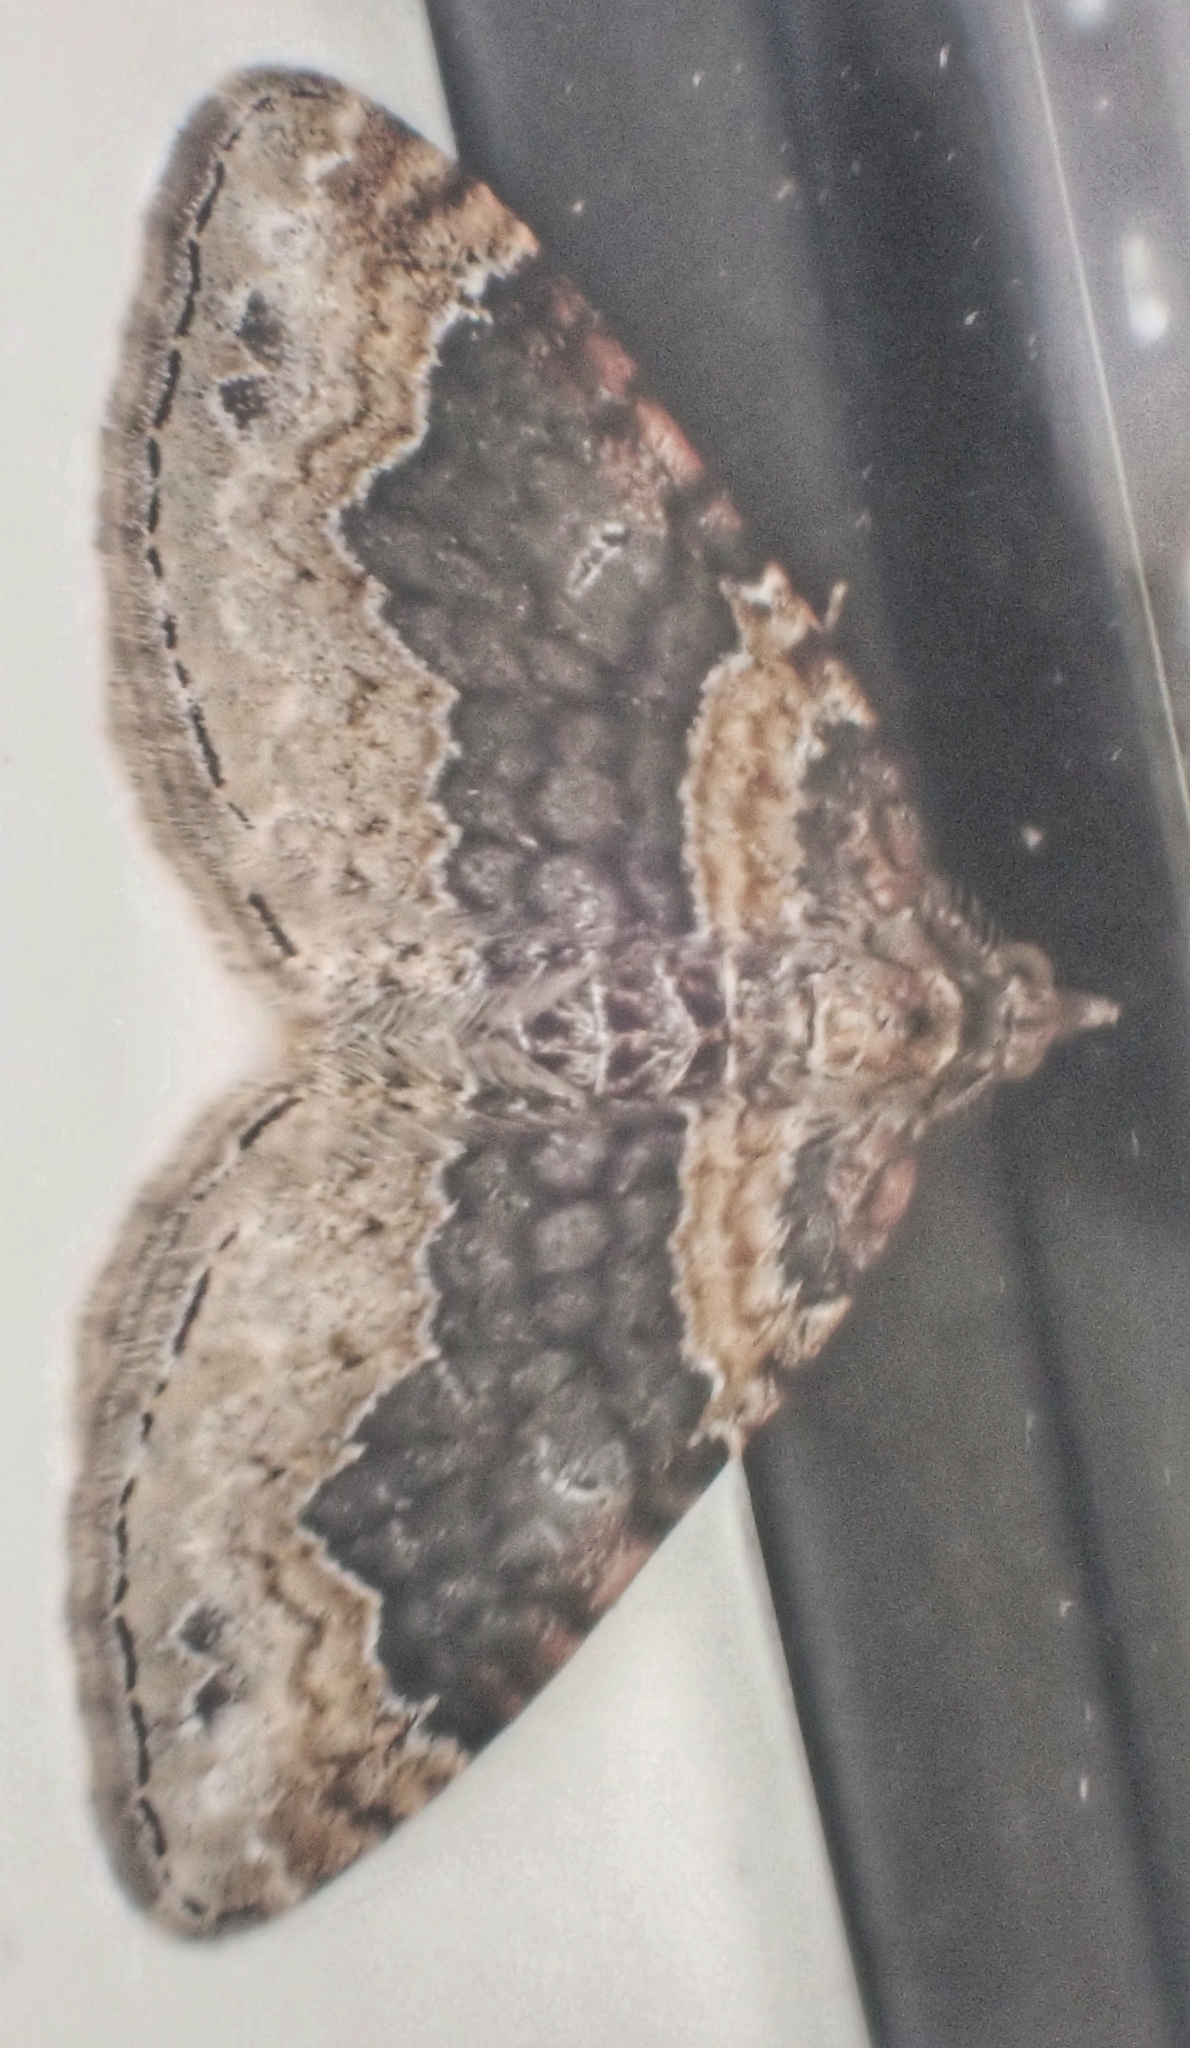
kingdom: Animalia
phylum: Arthropoda
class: Insecta
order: Lepidoptera
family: Geometridae
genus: Xanthorhoe
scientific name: Xanthorhoe ferrugata
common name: Dark-barred twin-spot carpet
